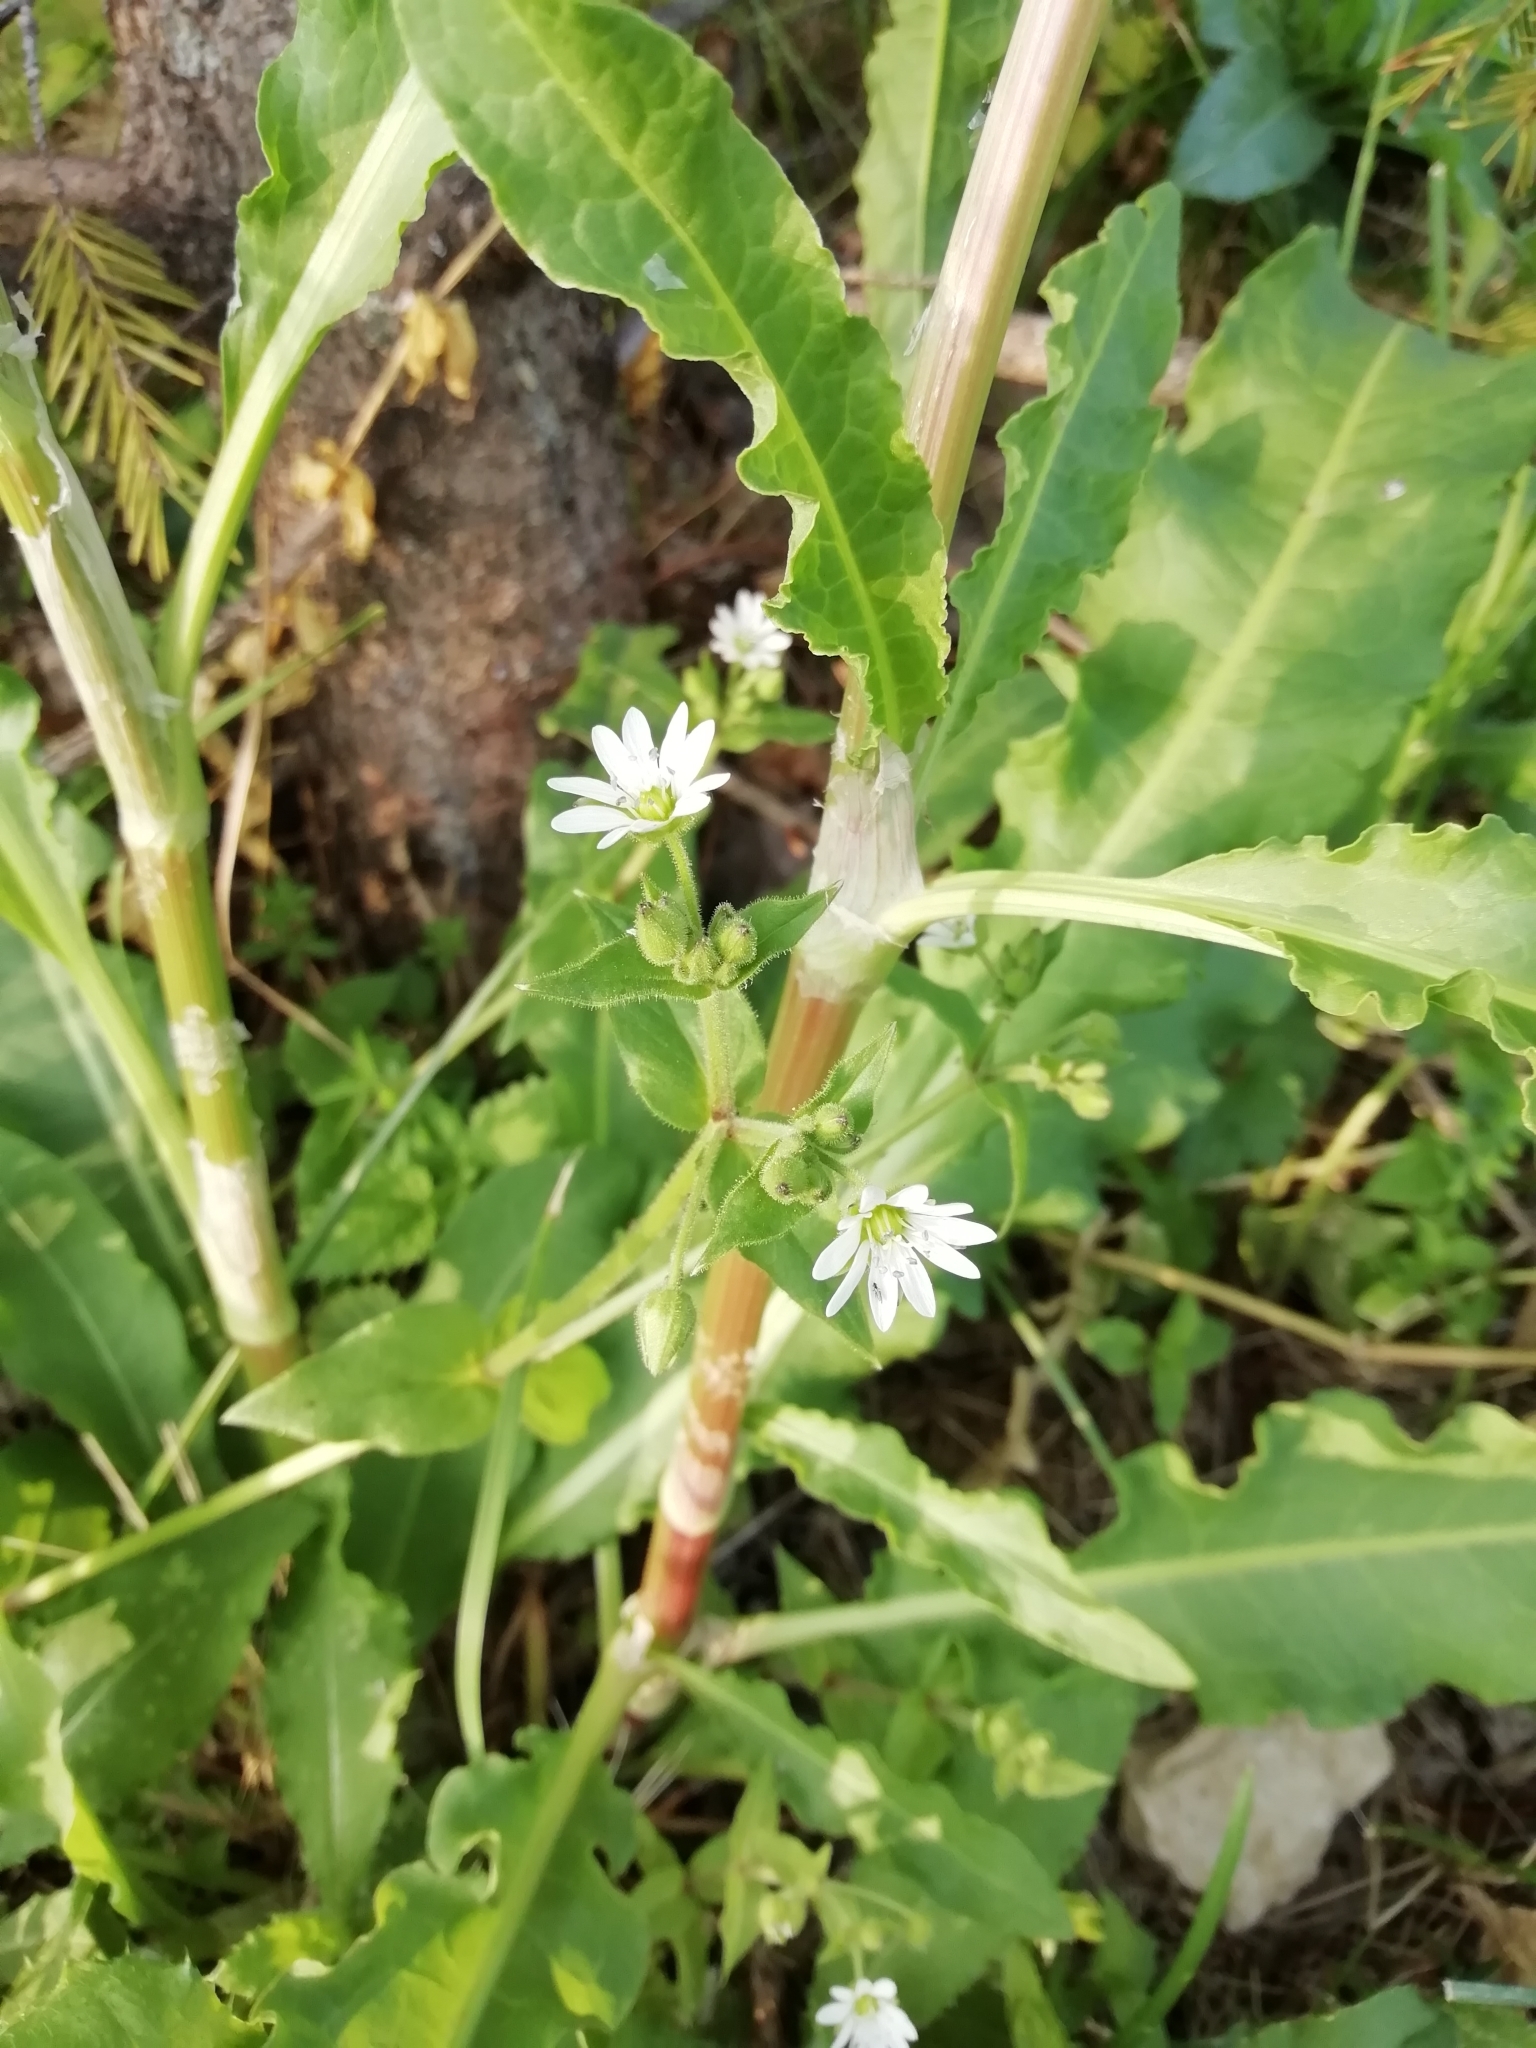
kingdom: Plantae
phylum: Tracheophyta
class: Magnoliopsida
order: Caryophyllales
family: Caryophyllaceae
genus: Stellaria
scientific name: Stellaria aquatica
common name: Water chickweed
